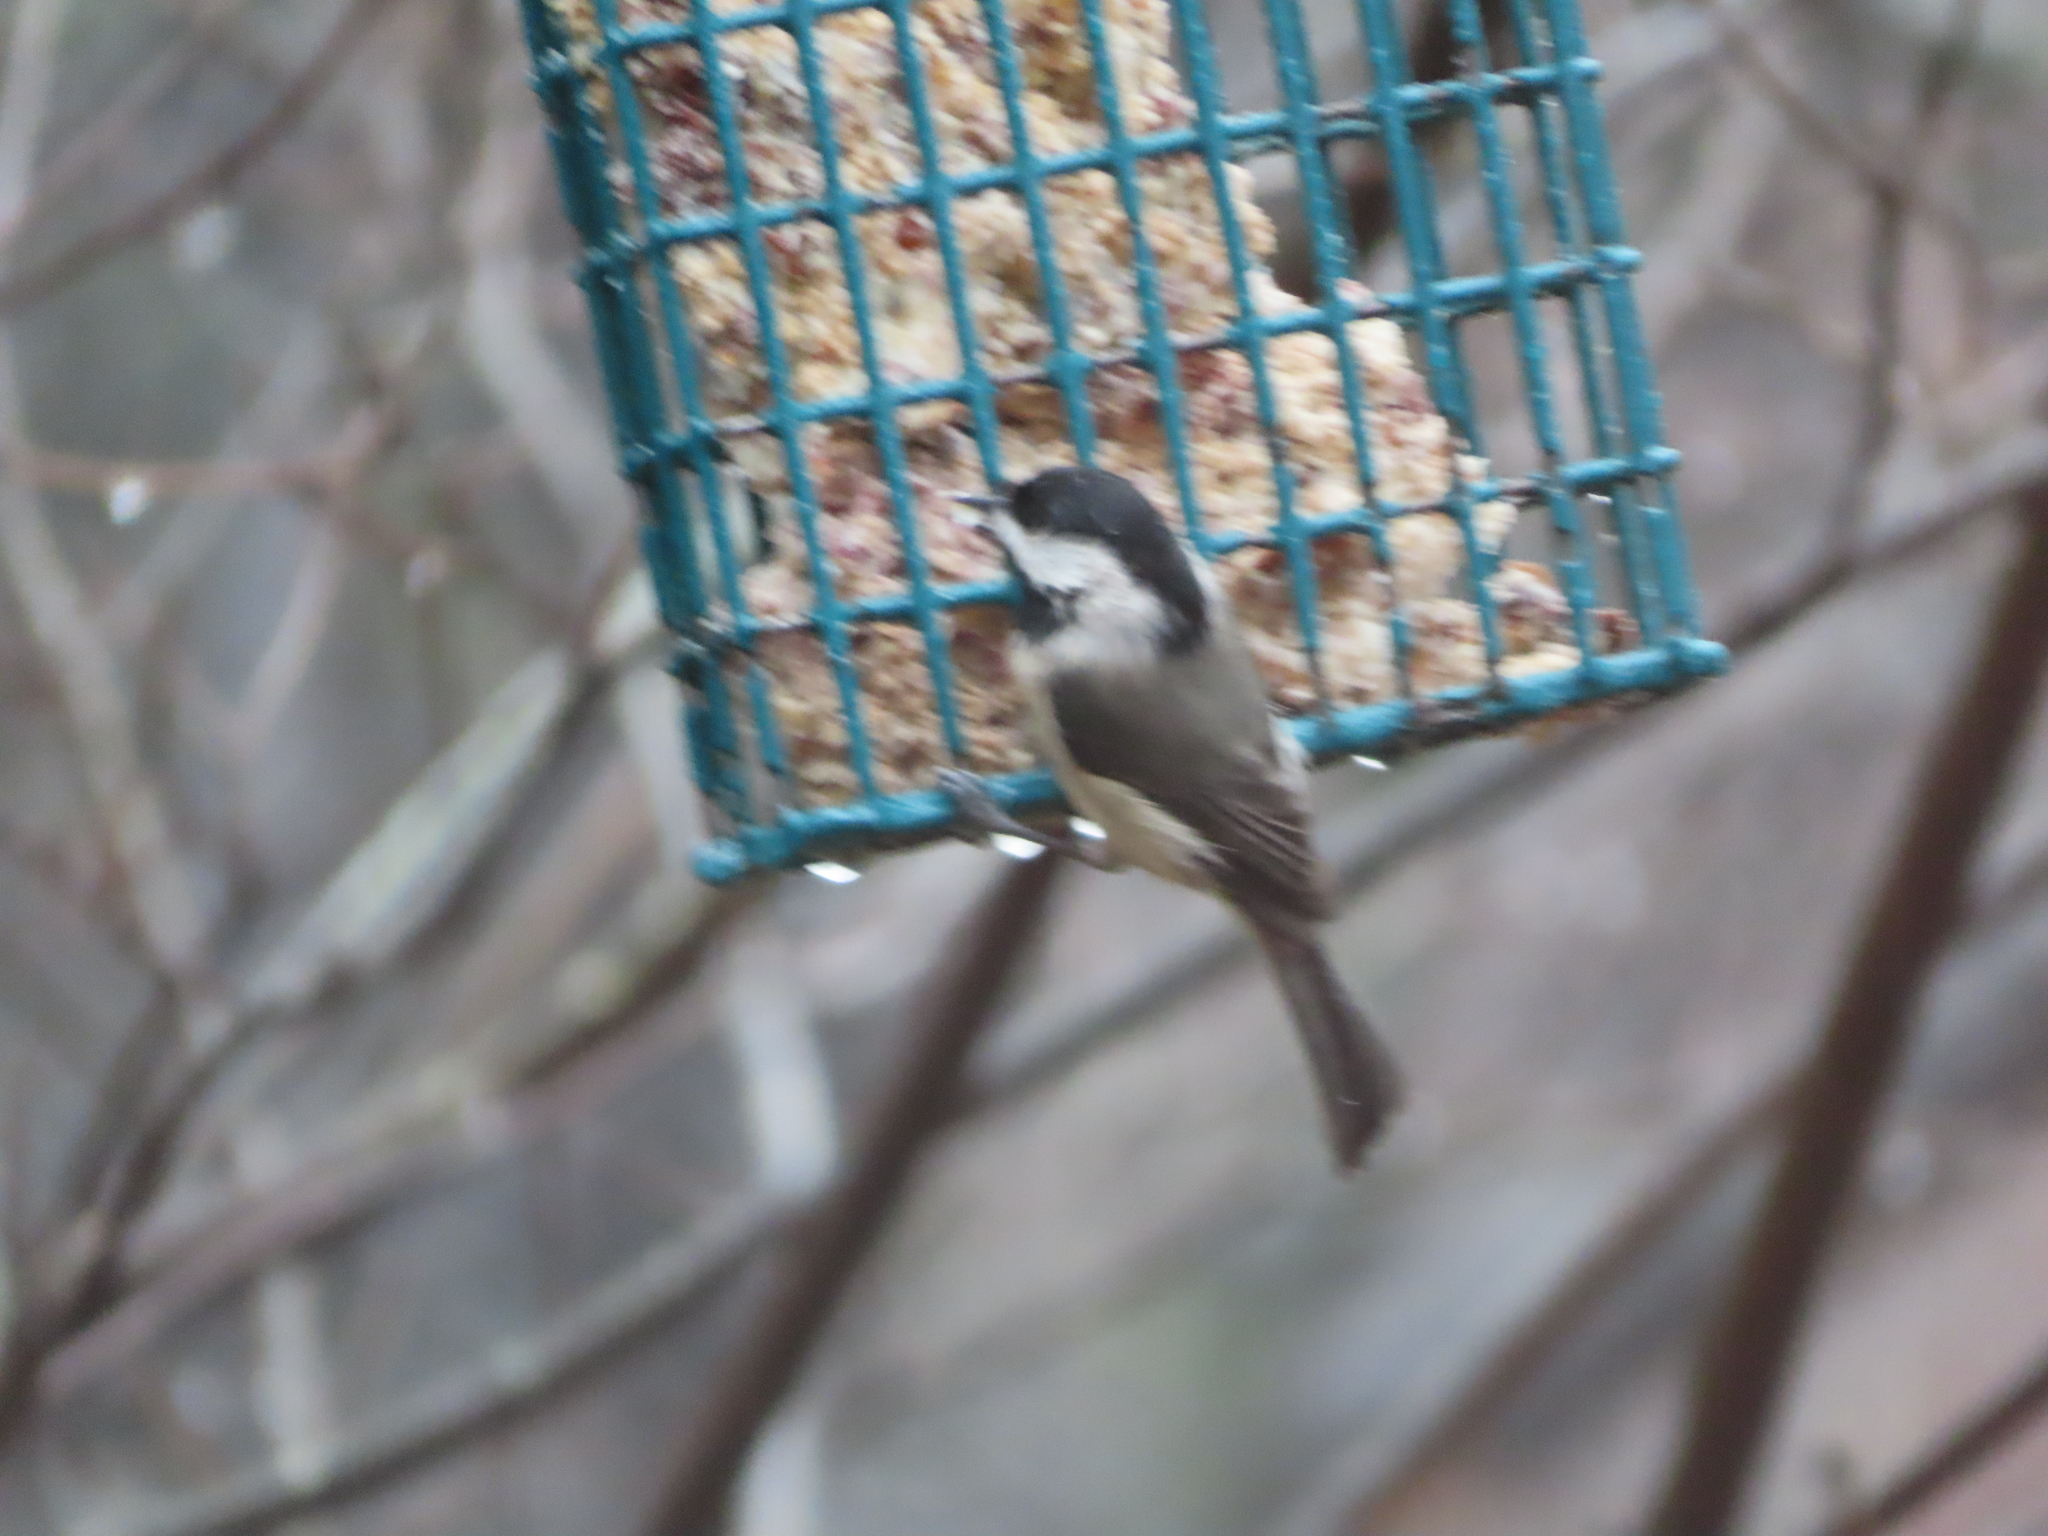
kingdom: Animalia
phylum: Chordata
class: Aves
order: Passeriformes
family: Paridae
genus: Poecile
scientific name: Poecile carolinensis
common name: Carolina chickadee
